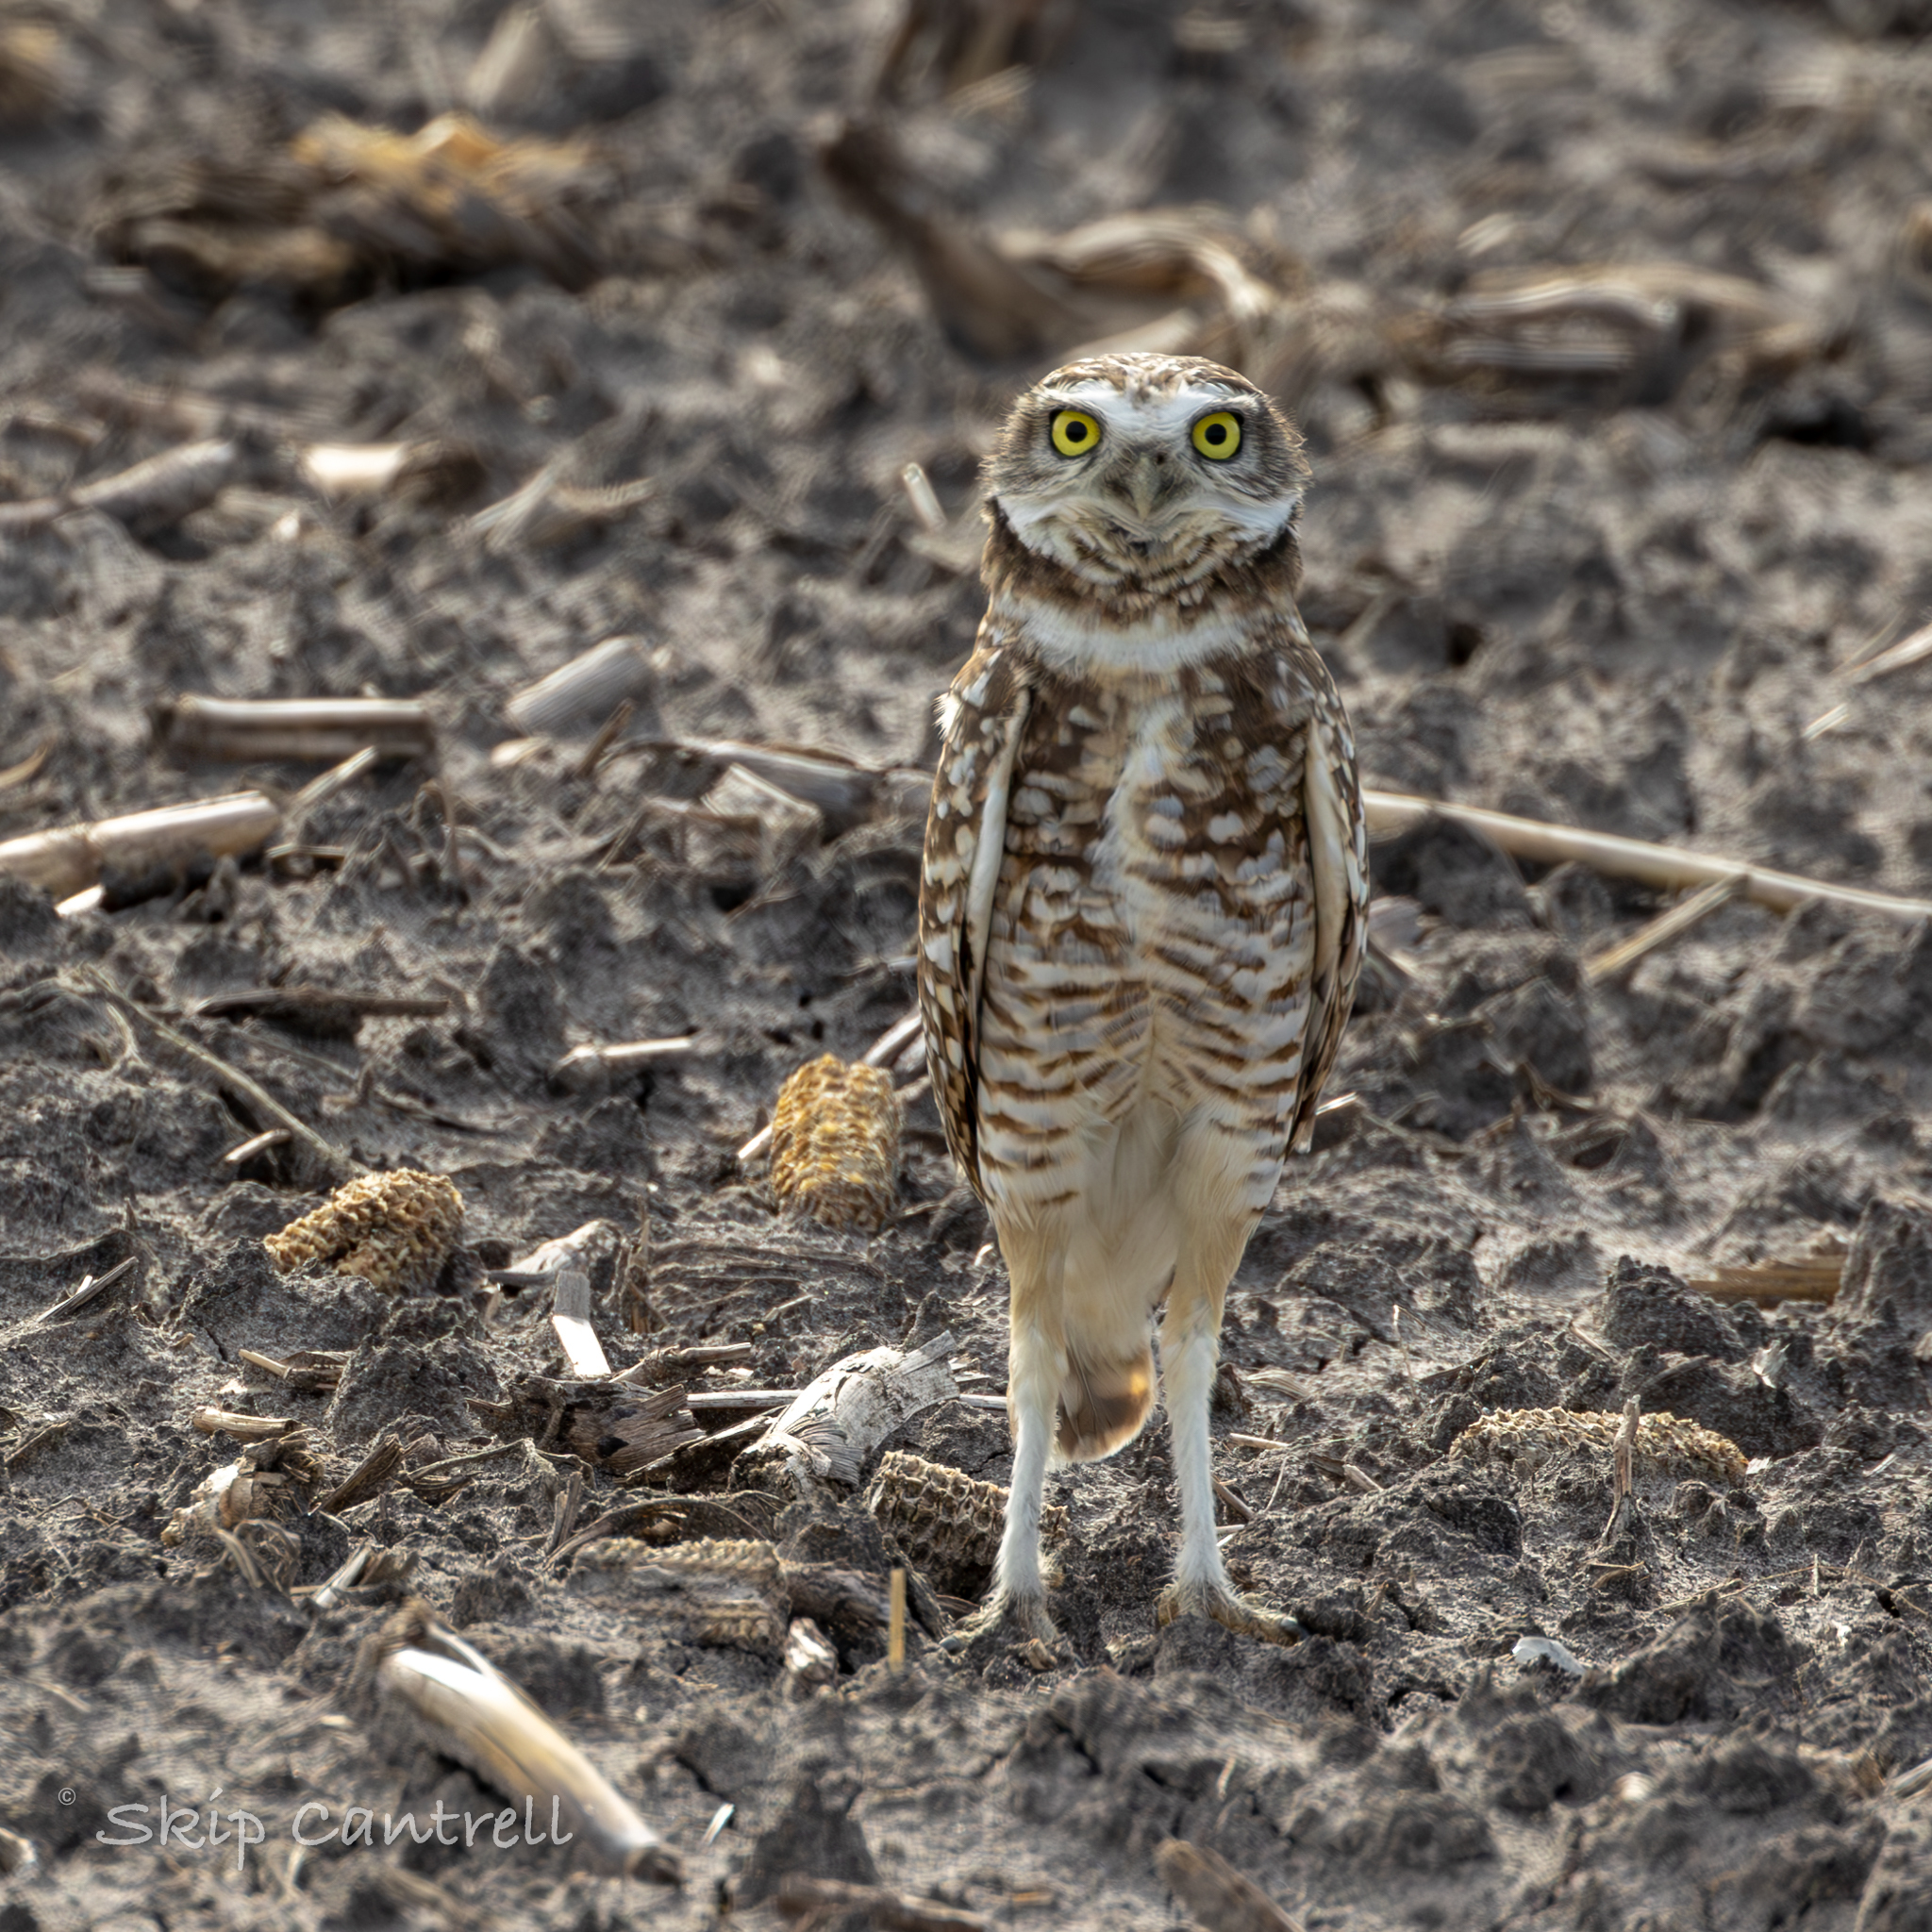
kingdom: Animalia
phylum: Chordata
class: Aves
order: Strigiformes
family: Strigidae
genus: Athene
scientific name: Athene cunicularia
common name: Burrowing owl
